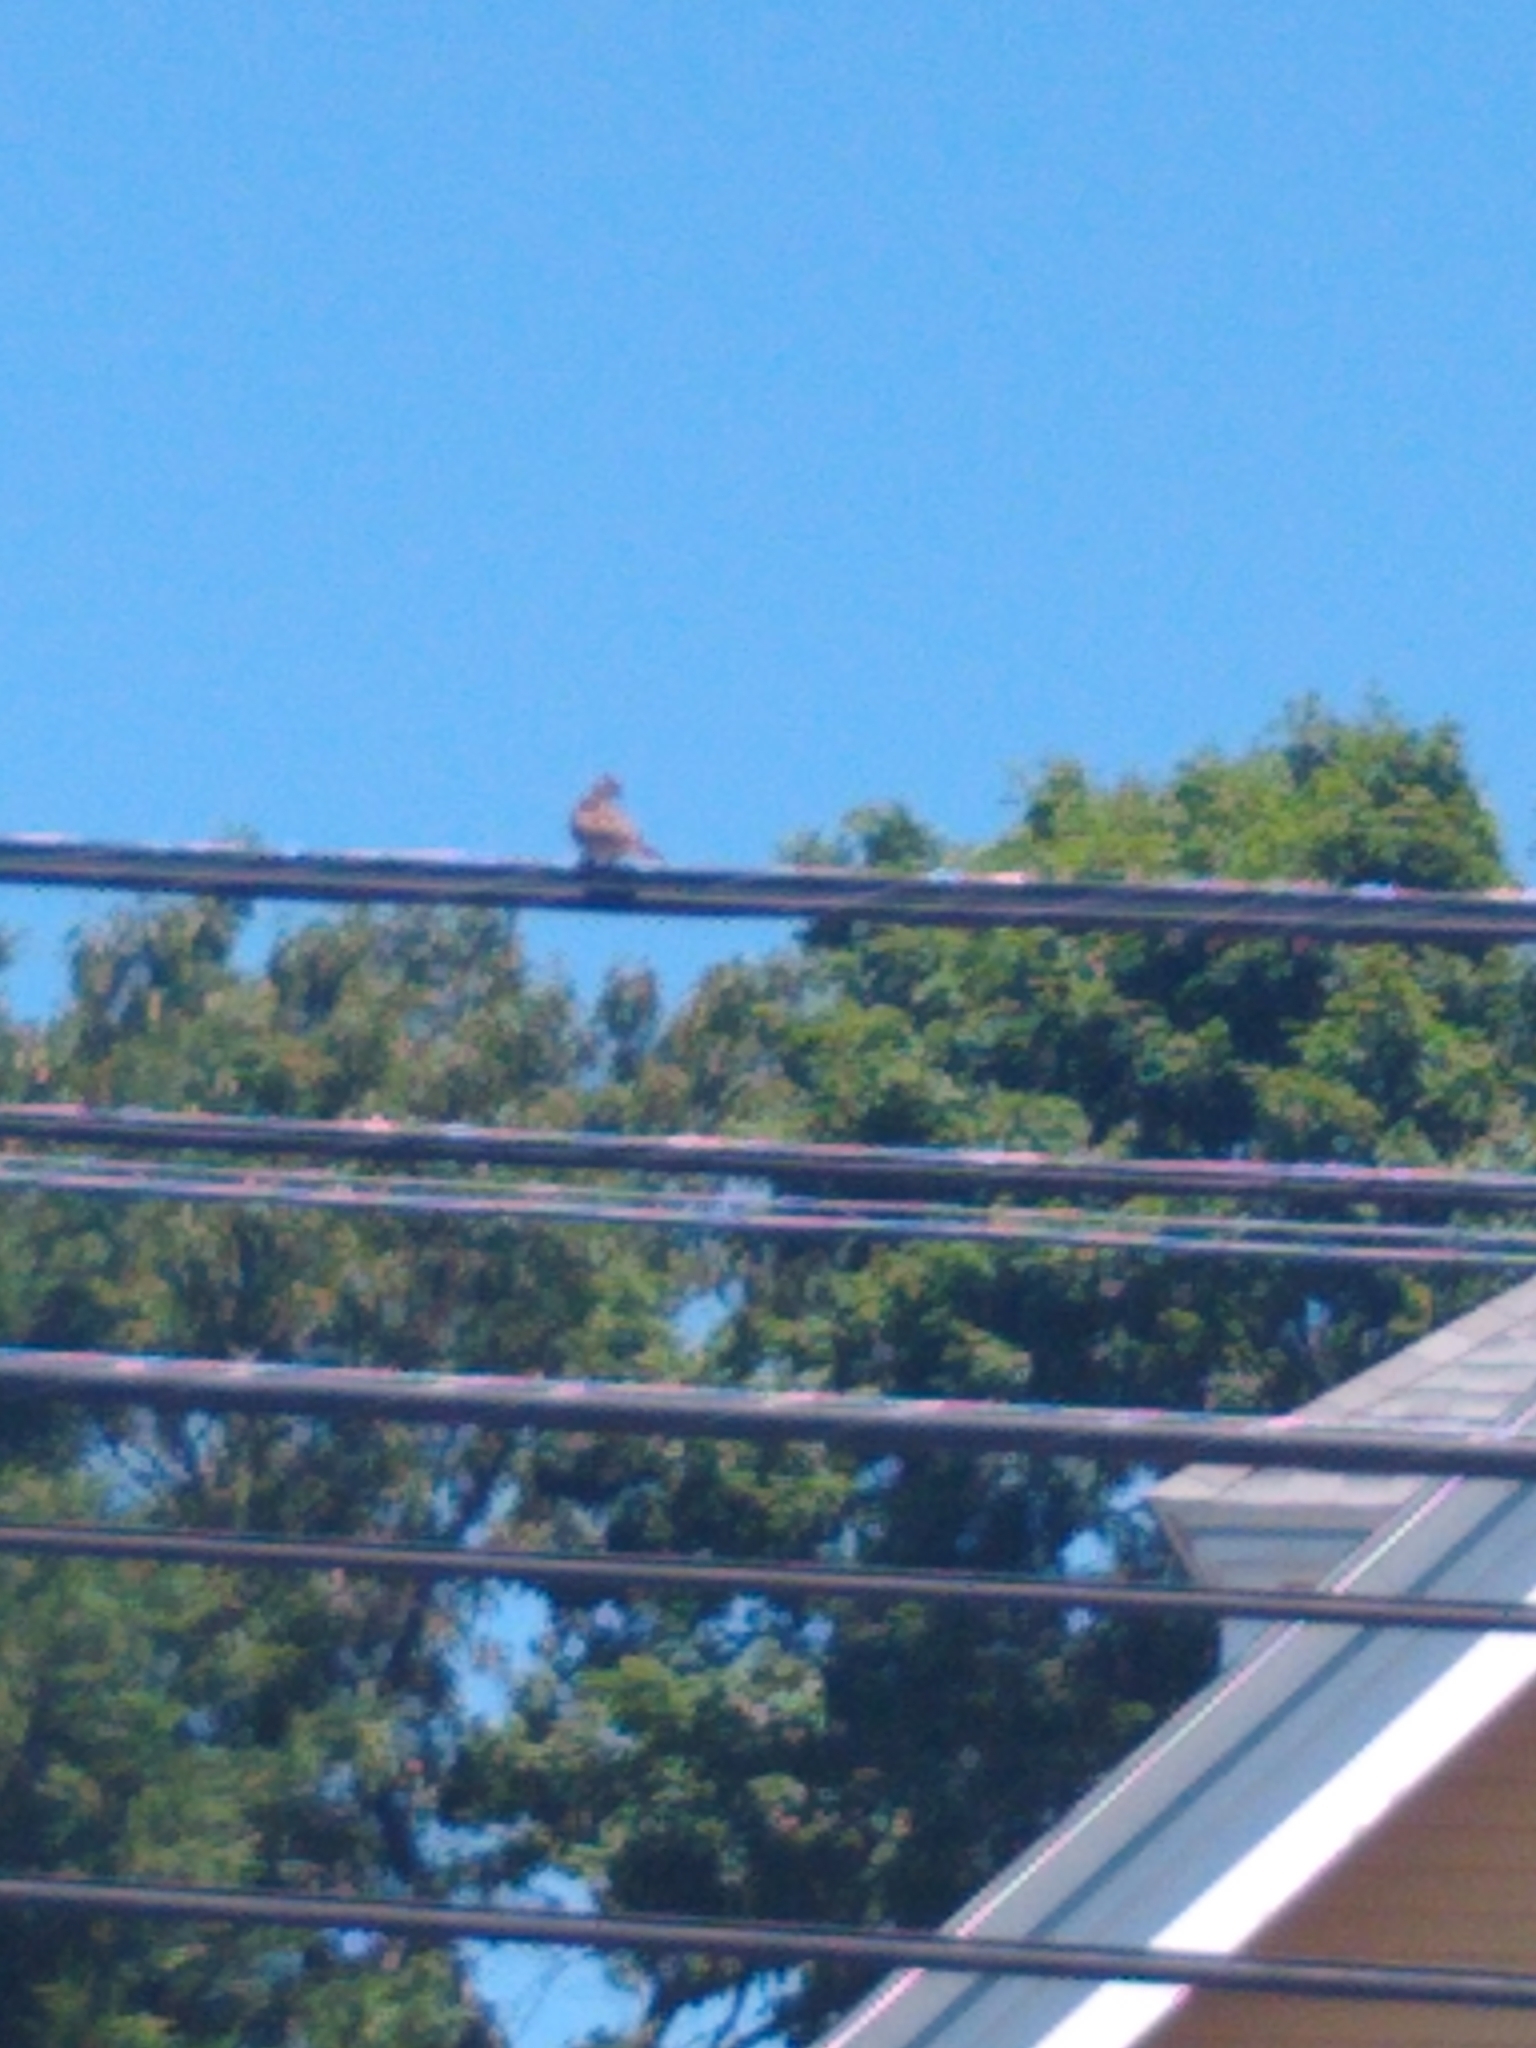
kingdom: Animalia
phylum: Chordata
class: Aves
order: Columbiformes
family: Columbidae
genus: Zenaida
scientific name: Zenaida macroura
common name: Mourning dove
